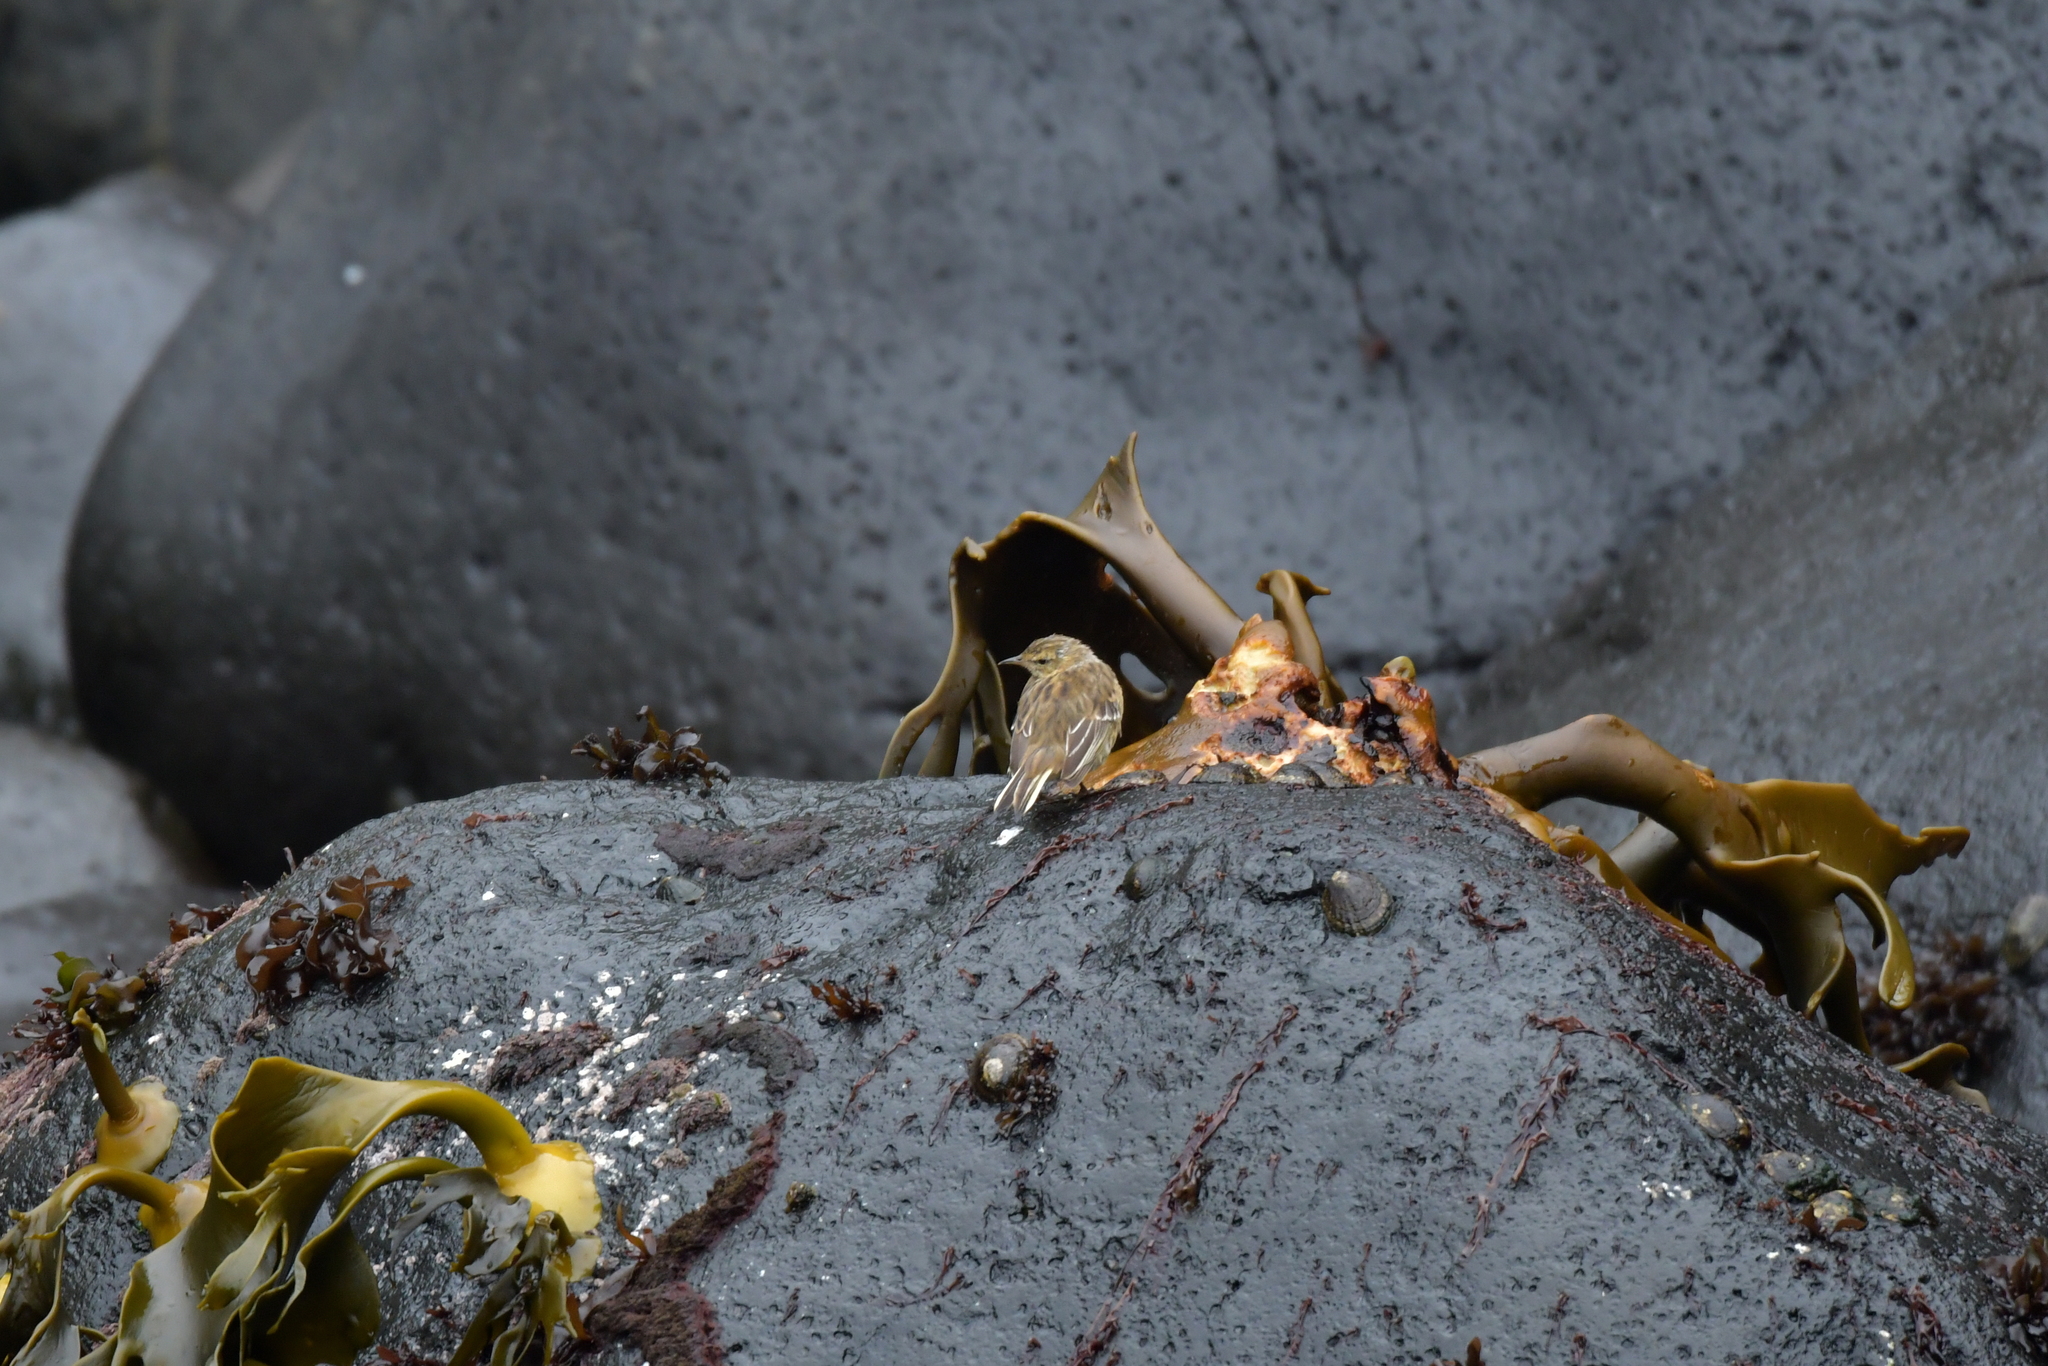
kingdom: Animalia
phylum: Chordata
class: Aves
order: Passeriformes
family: Motacillidae
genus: Anthus
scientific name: Anthus novaeseelandiae
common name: New zealand pipit
